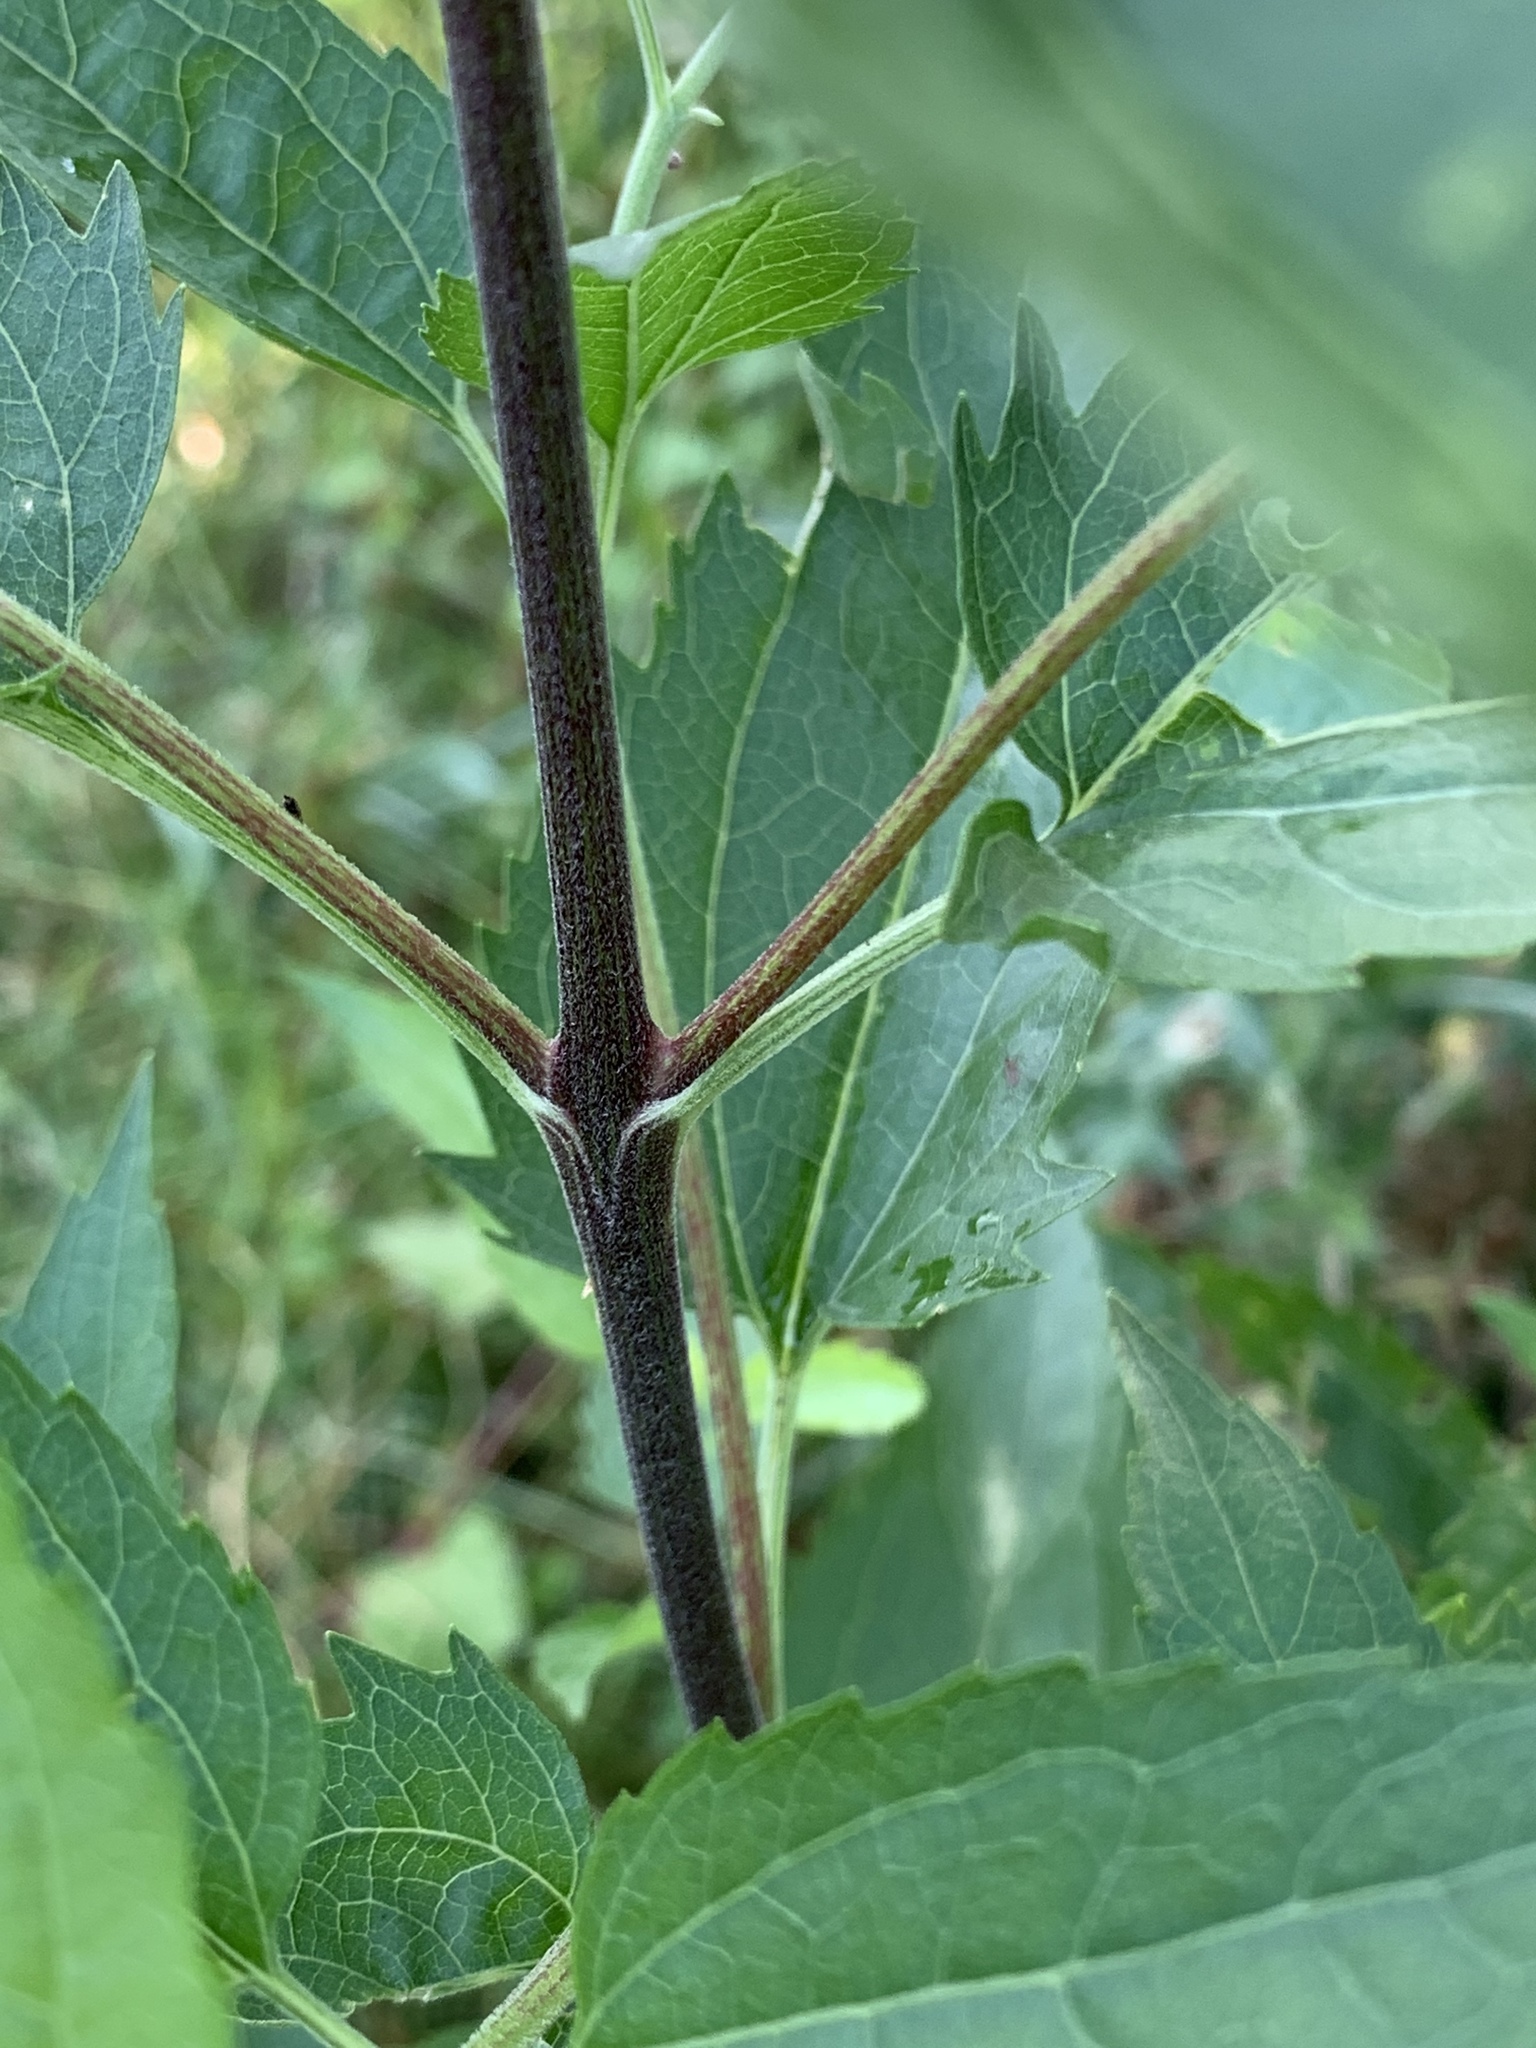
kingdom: Plantae
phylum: Tracheophyta
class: Magnoliopsida
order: Asterales
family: Asteraceae
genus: Eupatorium
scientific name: Eupatorium serotinum
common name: Late boneset
